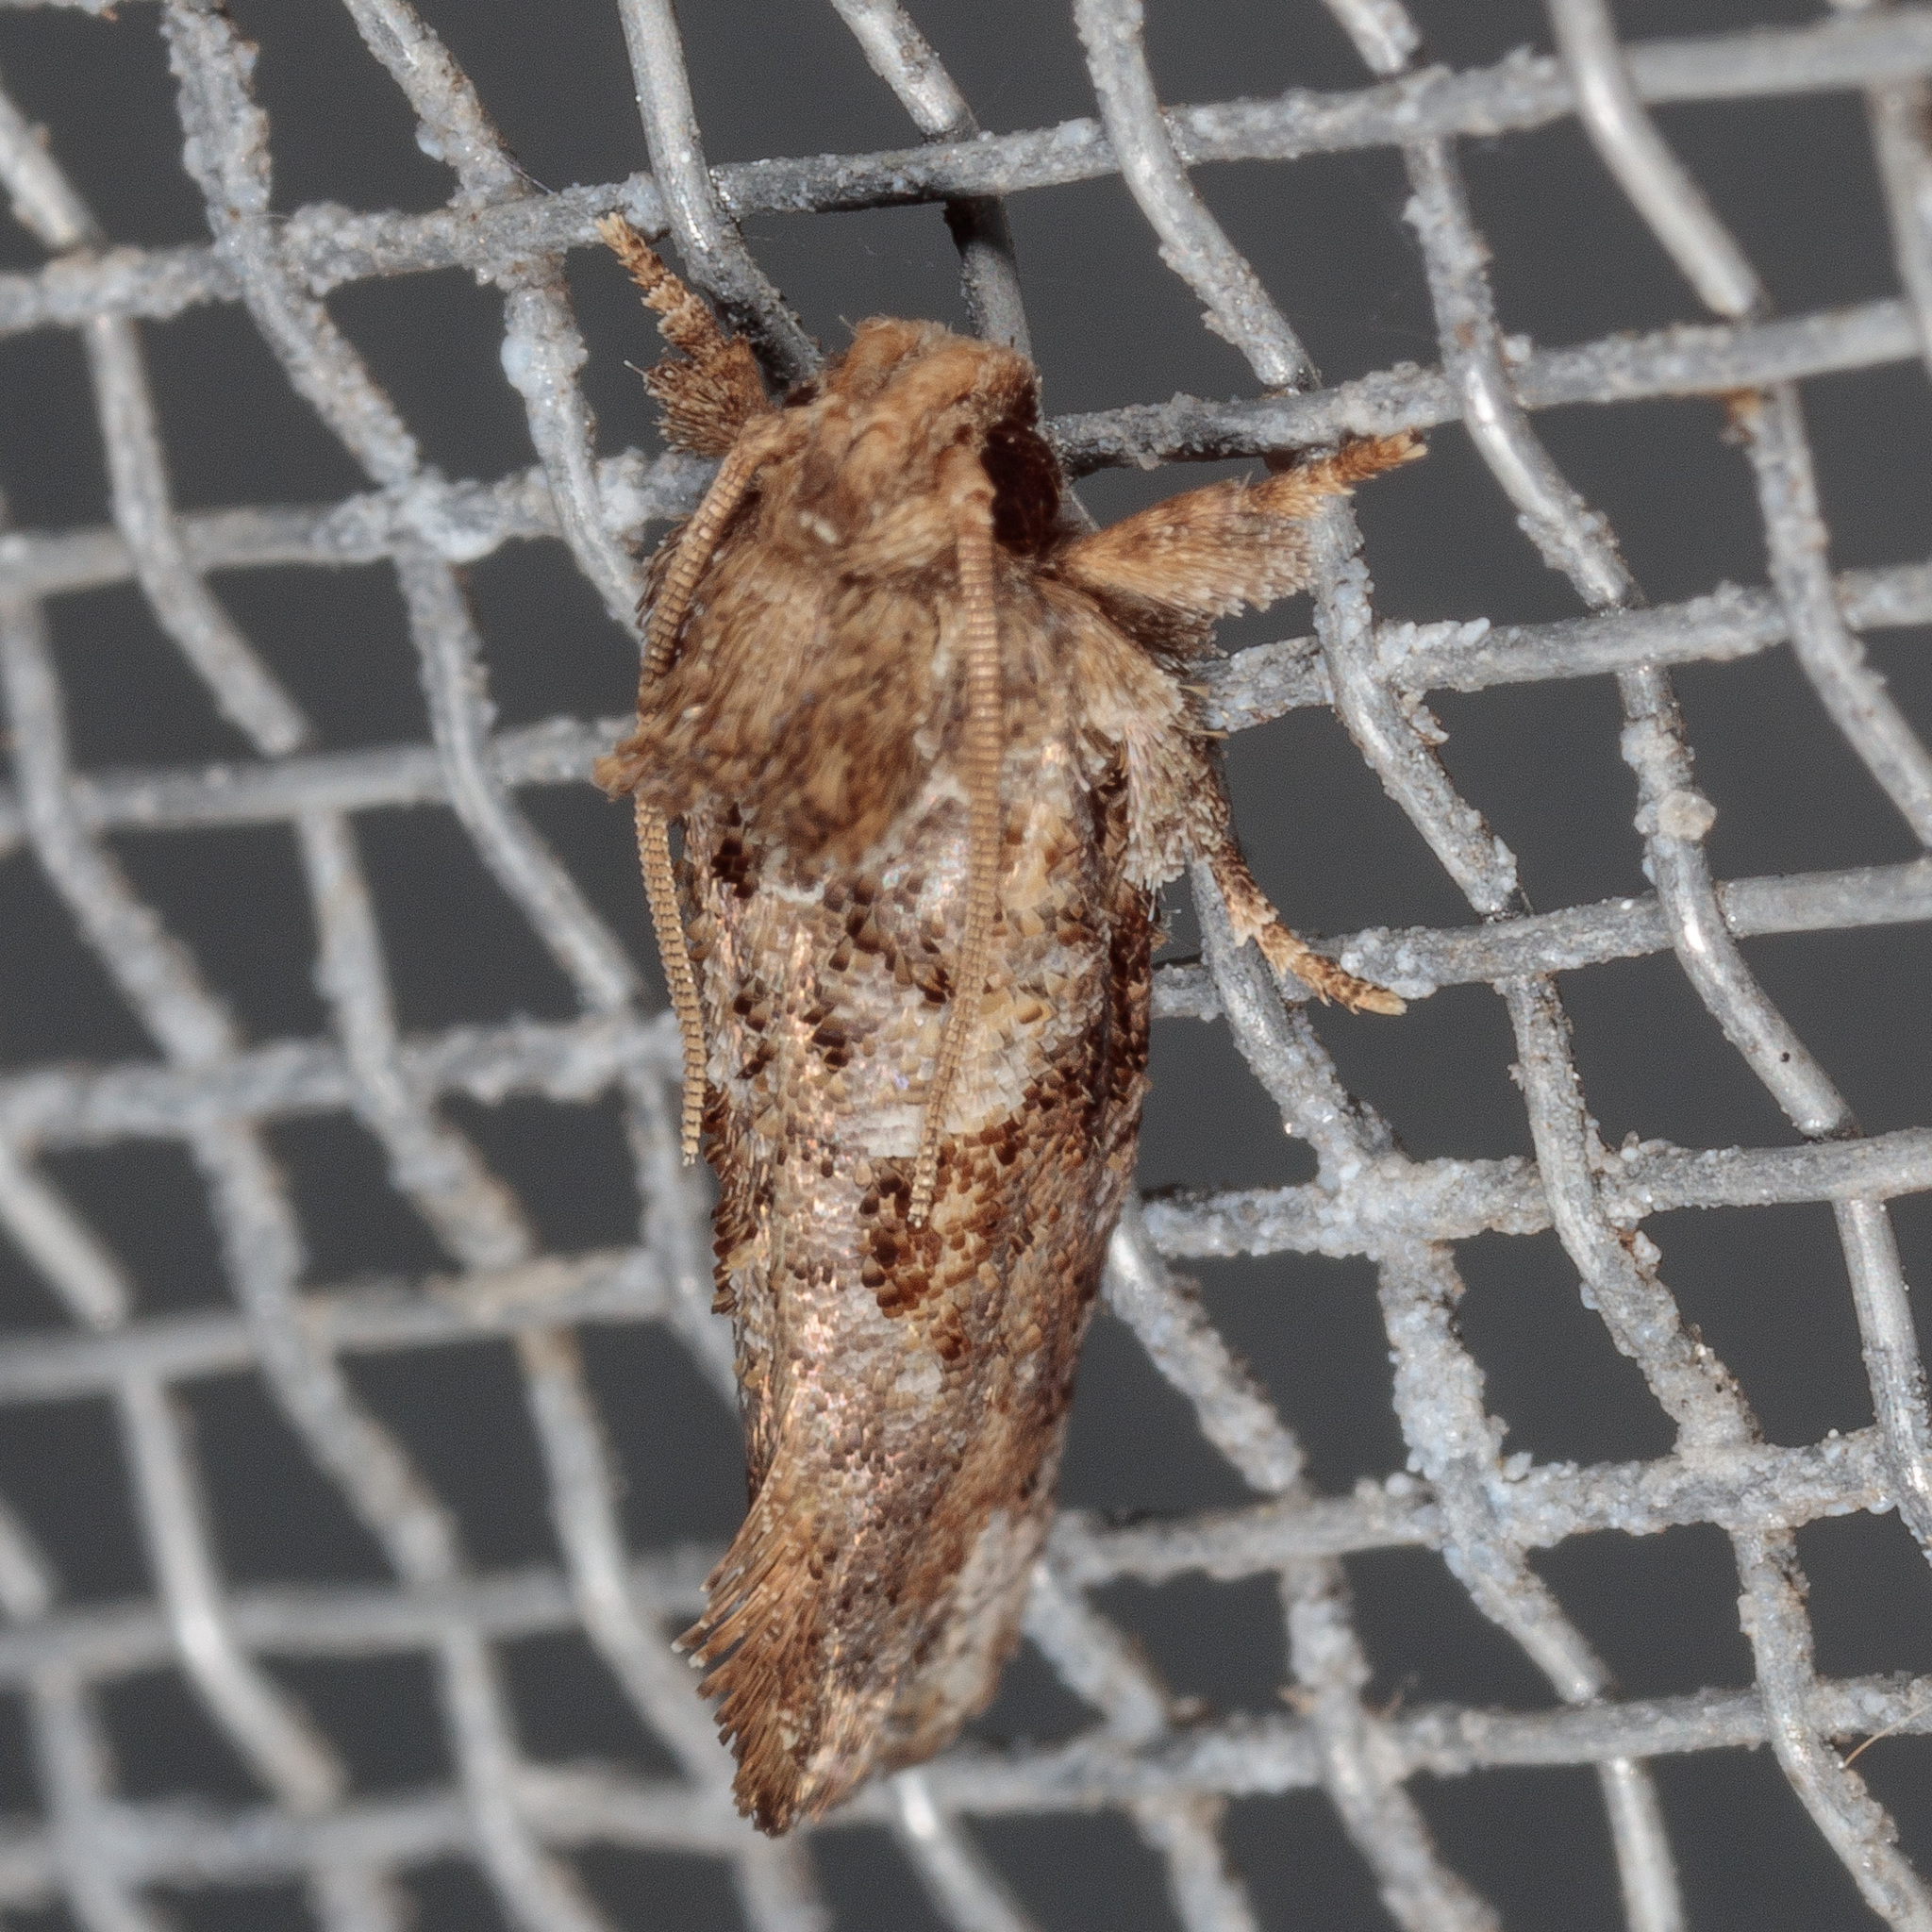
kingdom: Animalia
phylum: Arthropoda
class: Insecta
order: Lepidoptera
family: Tineidae
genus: Acrolophus
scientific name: Acrolophus piger
